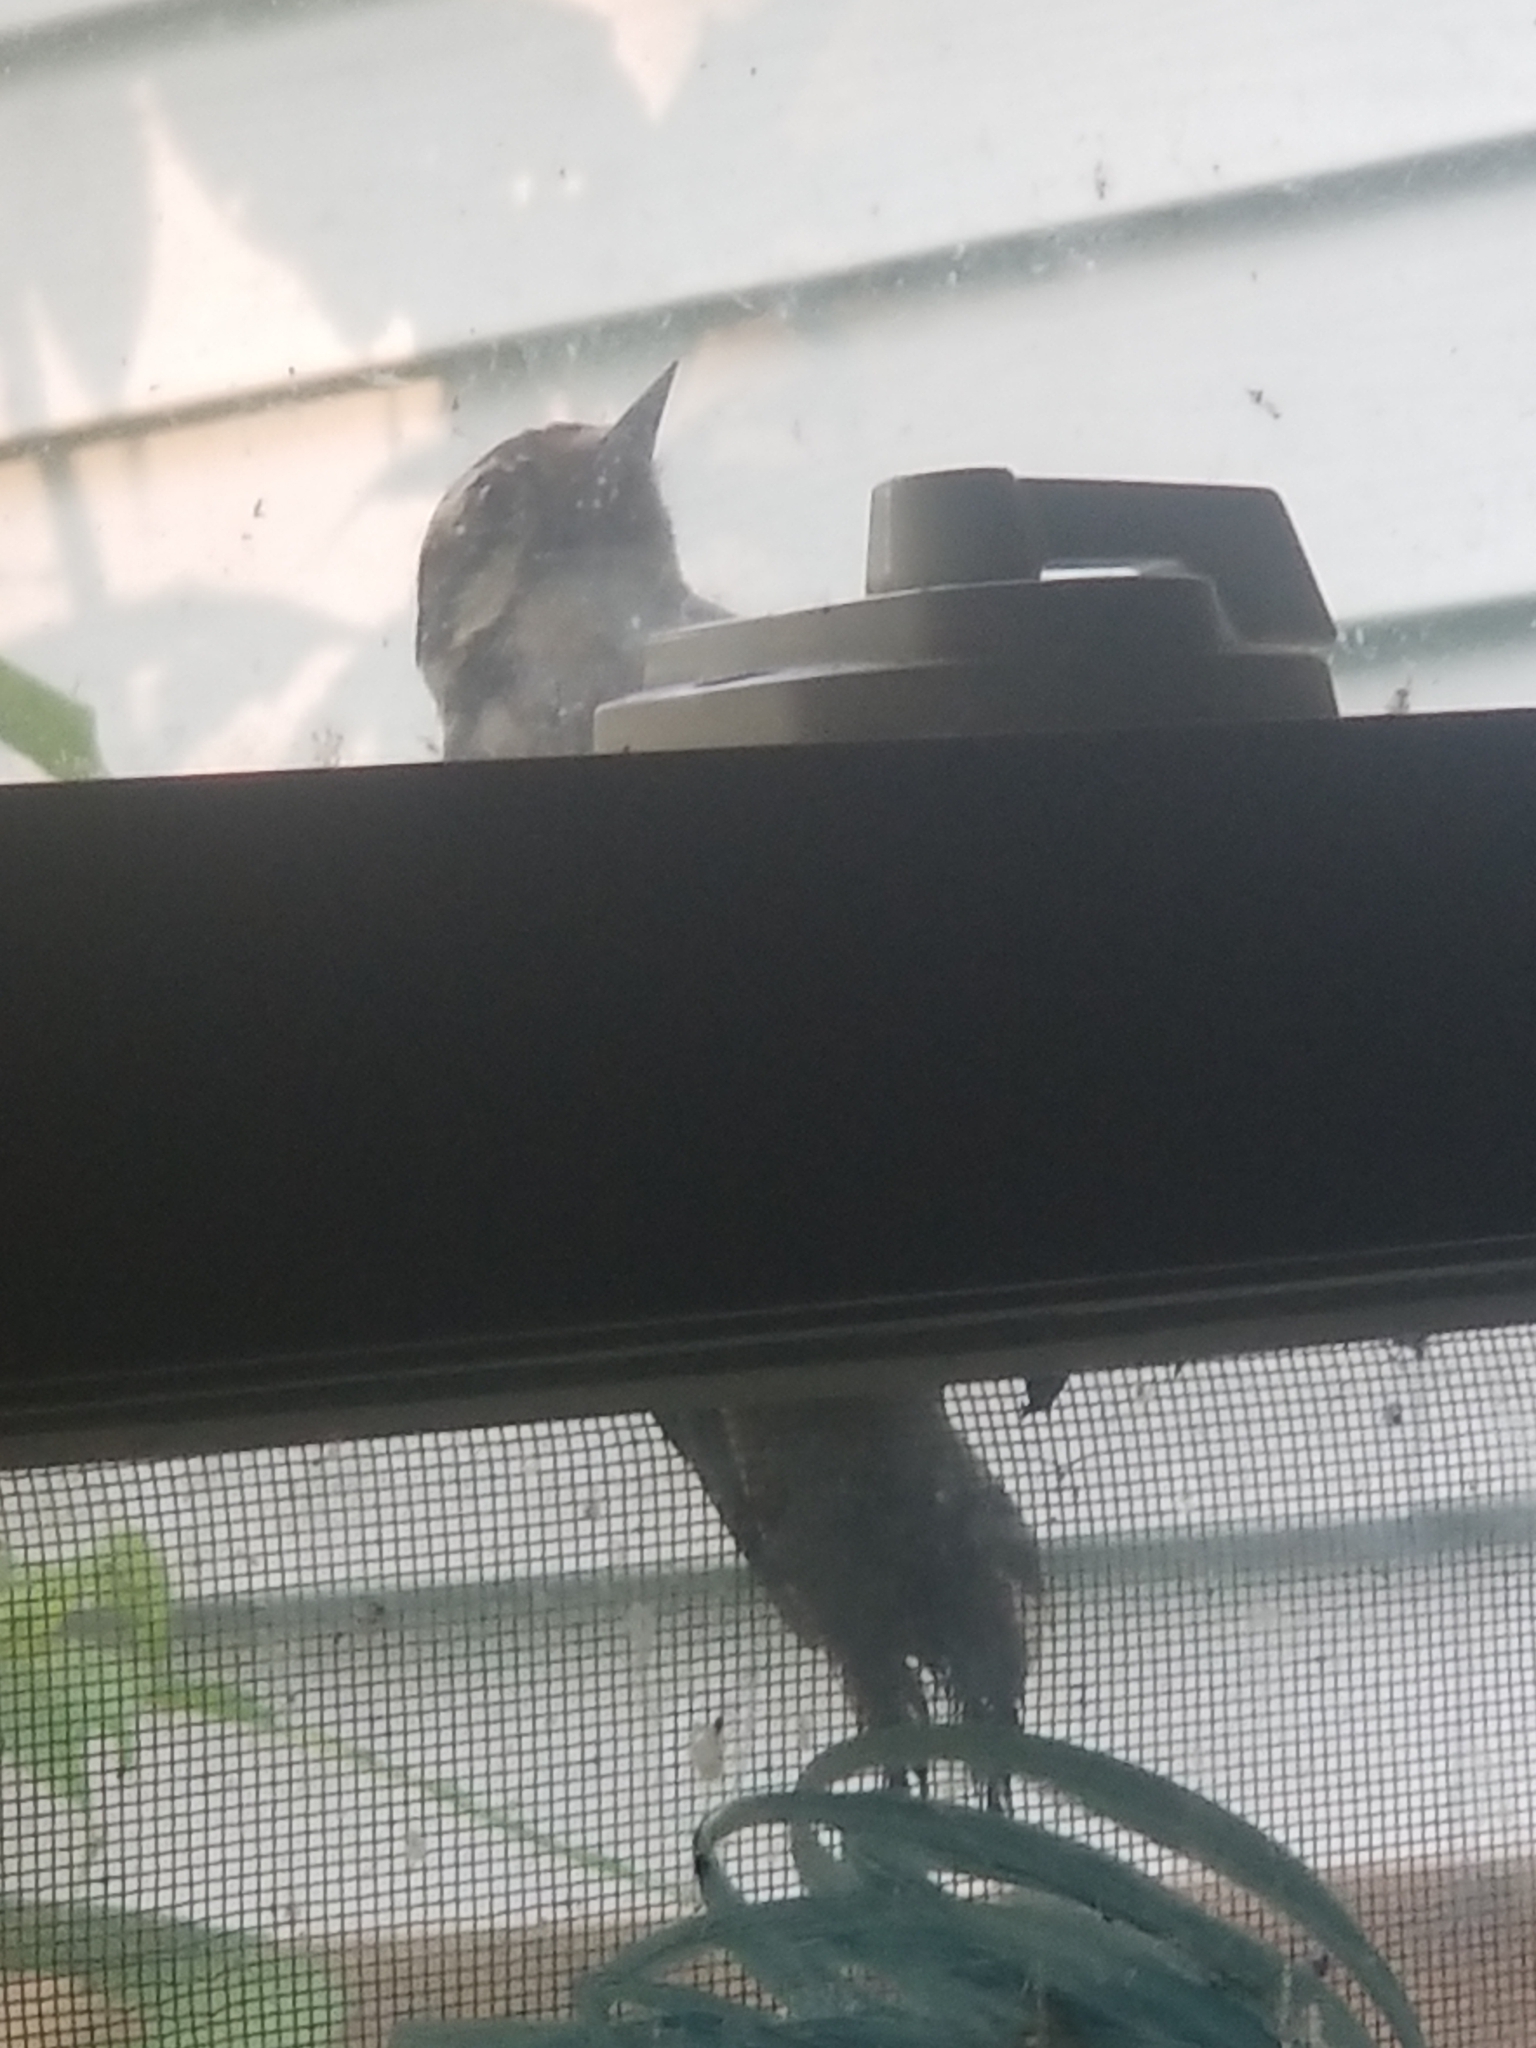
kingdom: Animalia
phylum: Chordata
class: Aves
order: Piciformes
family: Picidae
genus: Dryobates
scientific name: Dryobates pubescens
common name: Downy woodpecker
